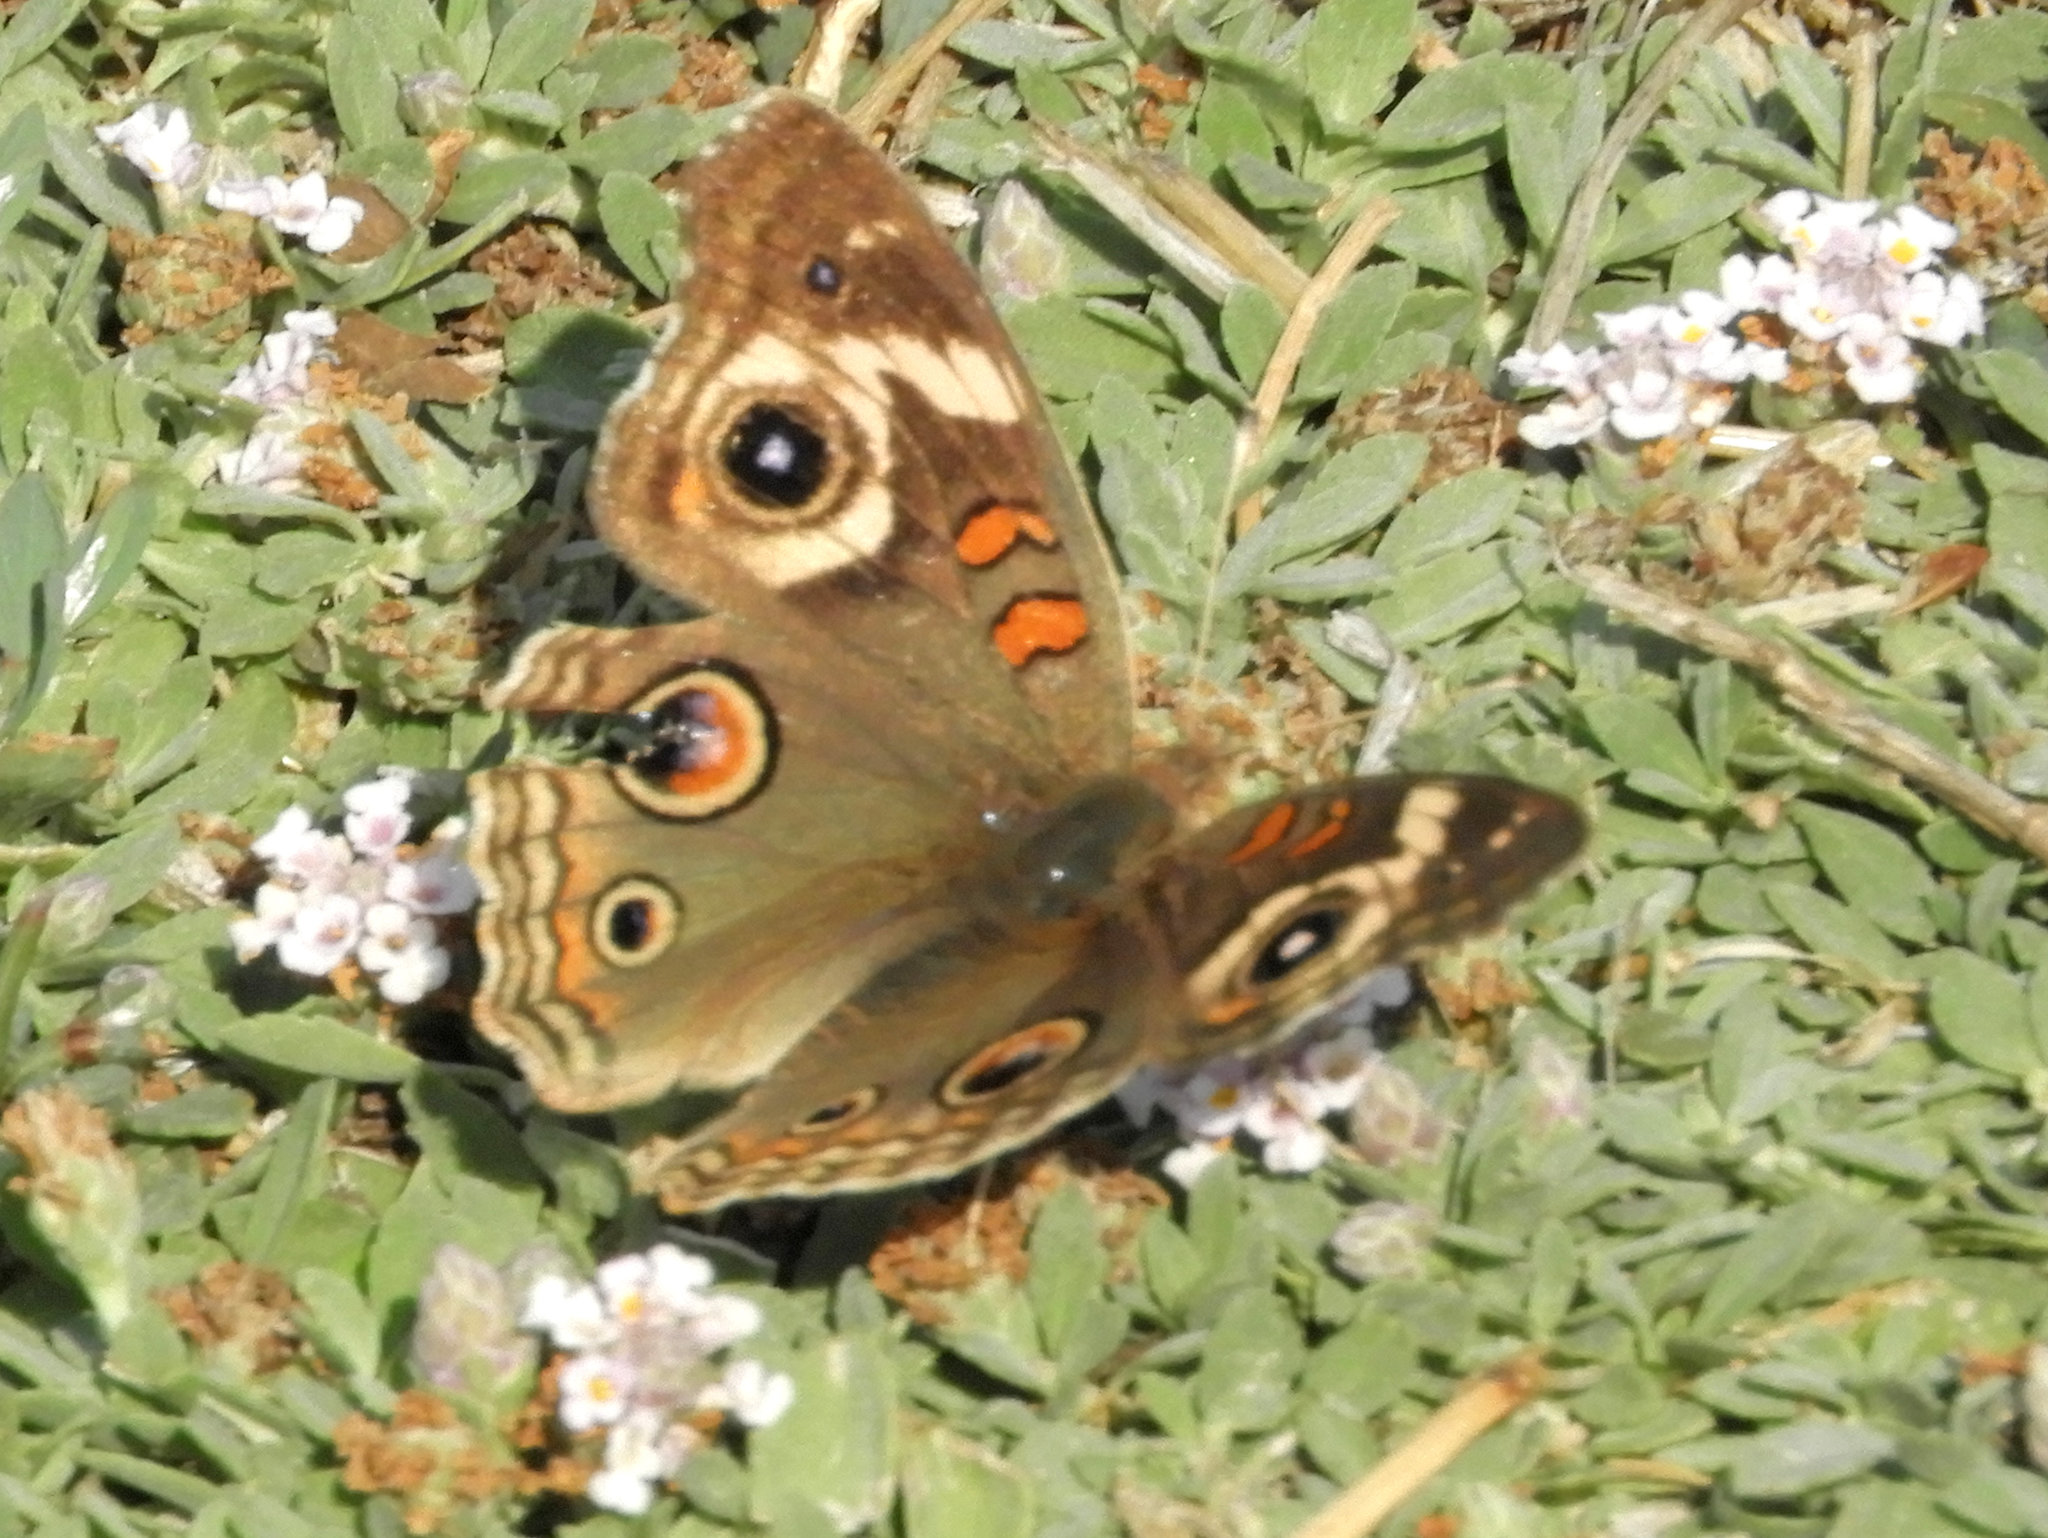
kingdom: Animalia
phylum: Arthropoda
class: Insecta
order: Lepidoptera
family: Nymphalidae
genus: Junonia
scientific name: Junonia grisea
